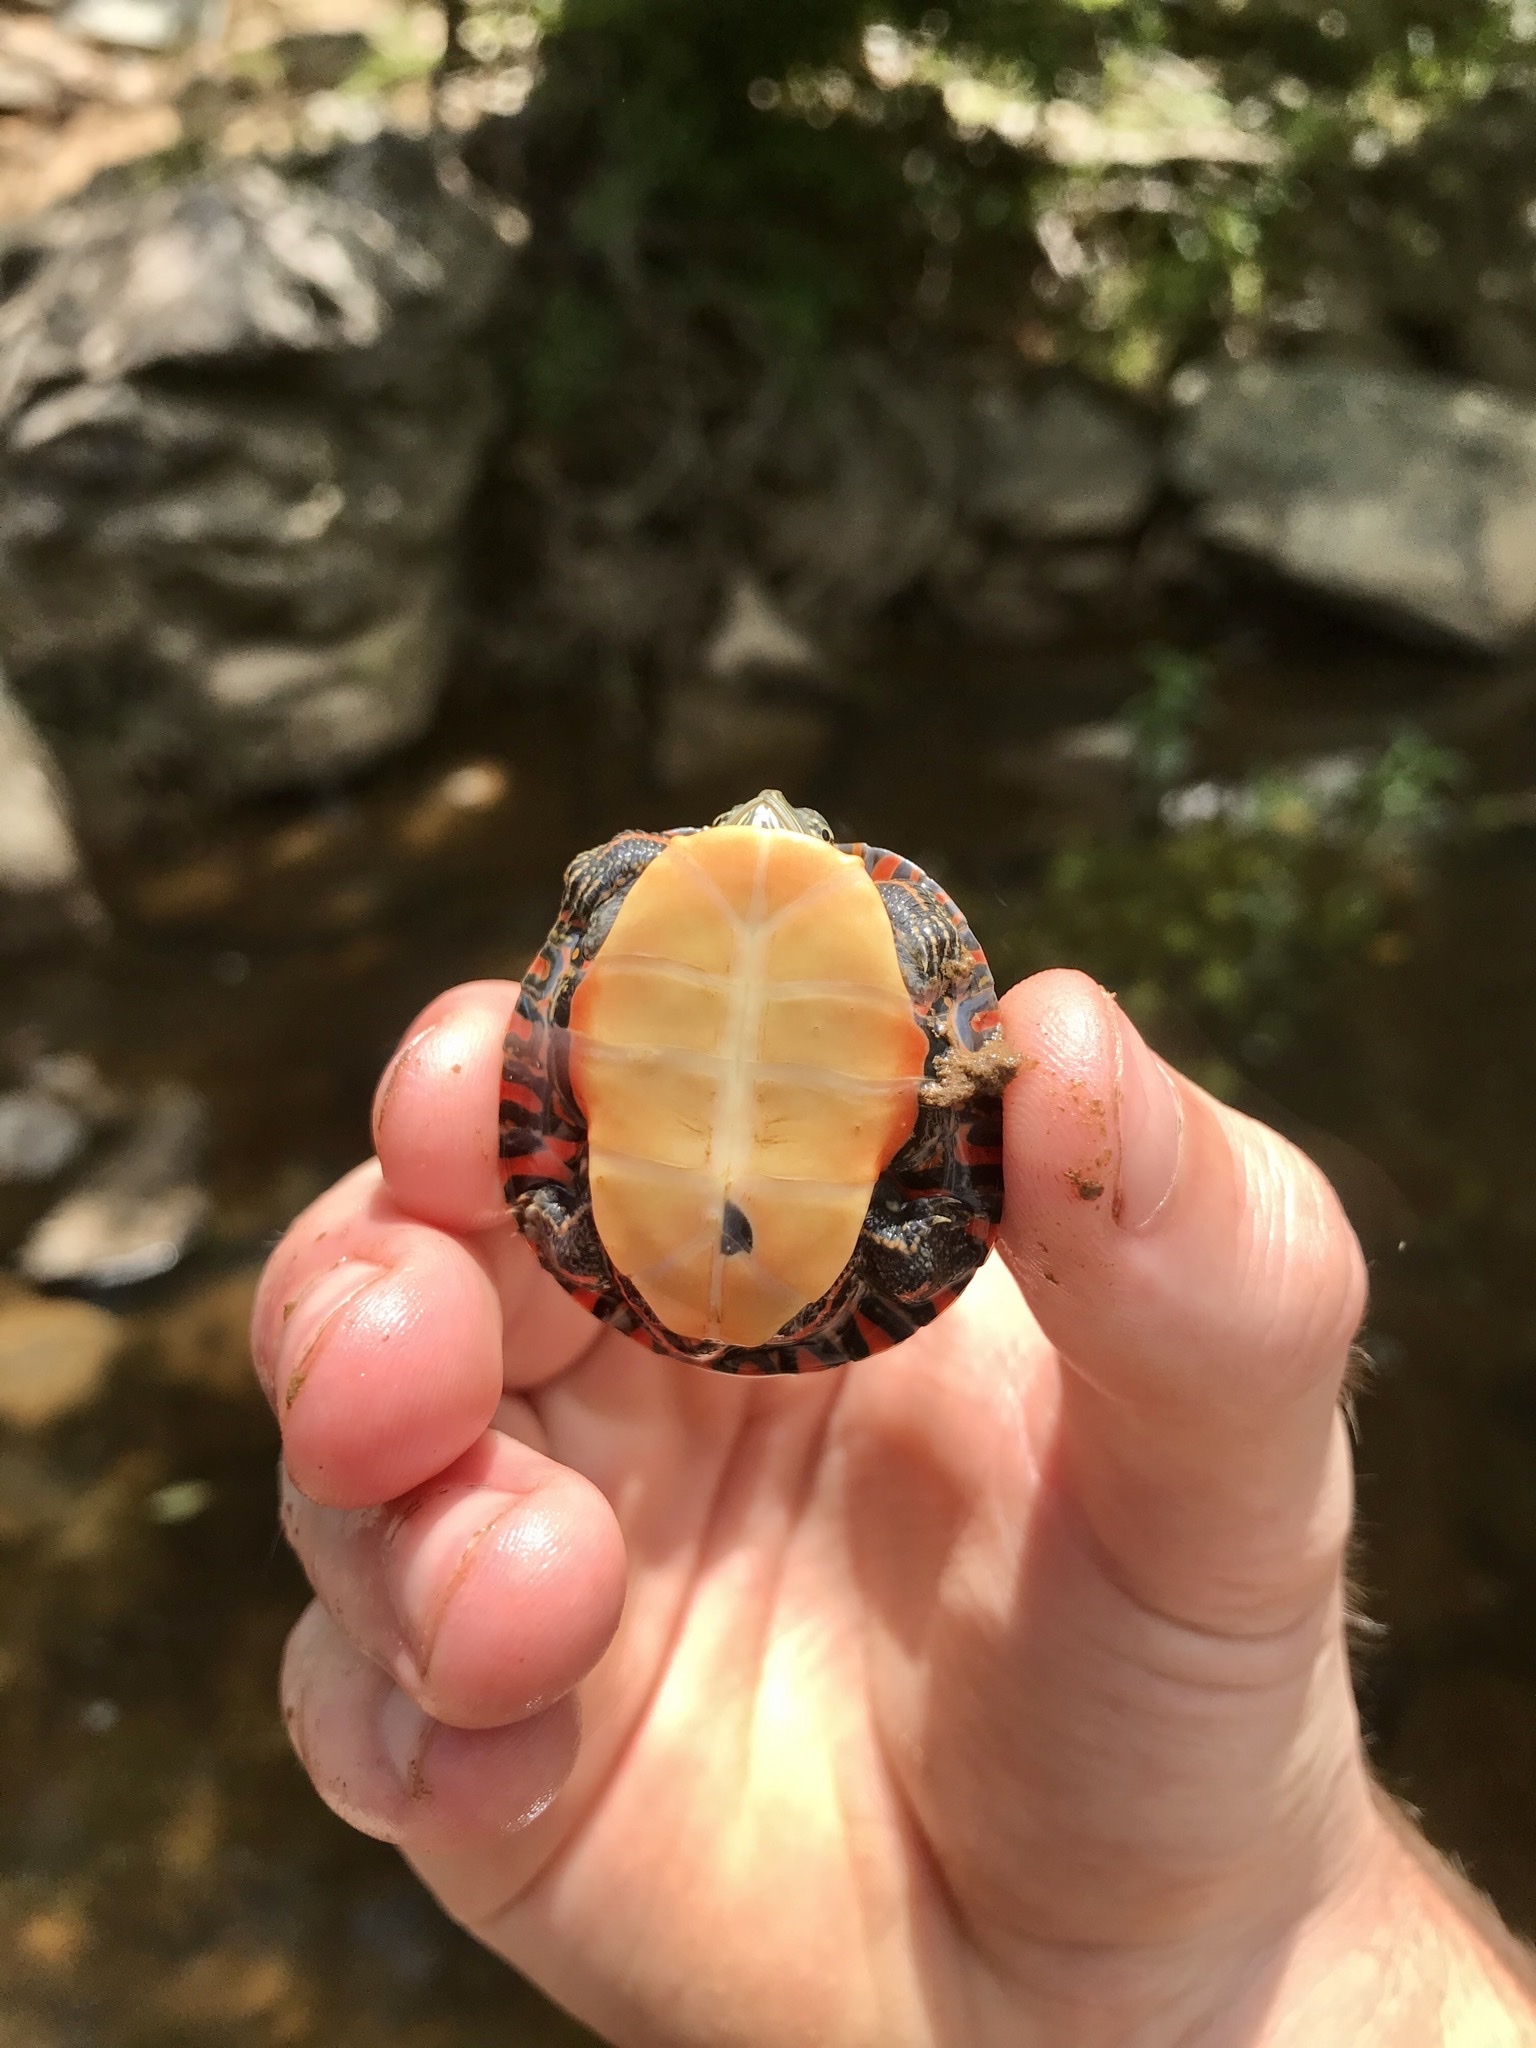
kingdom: Animalia
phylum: Chordata
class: Testudines
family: Emydidae
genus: Chrysemys
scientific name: Chrysemys picta
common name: Painted turtle
